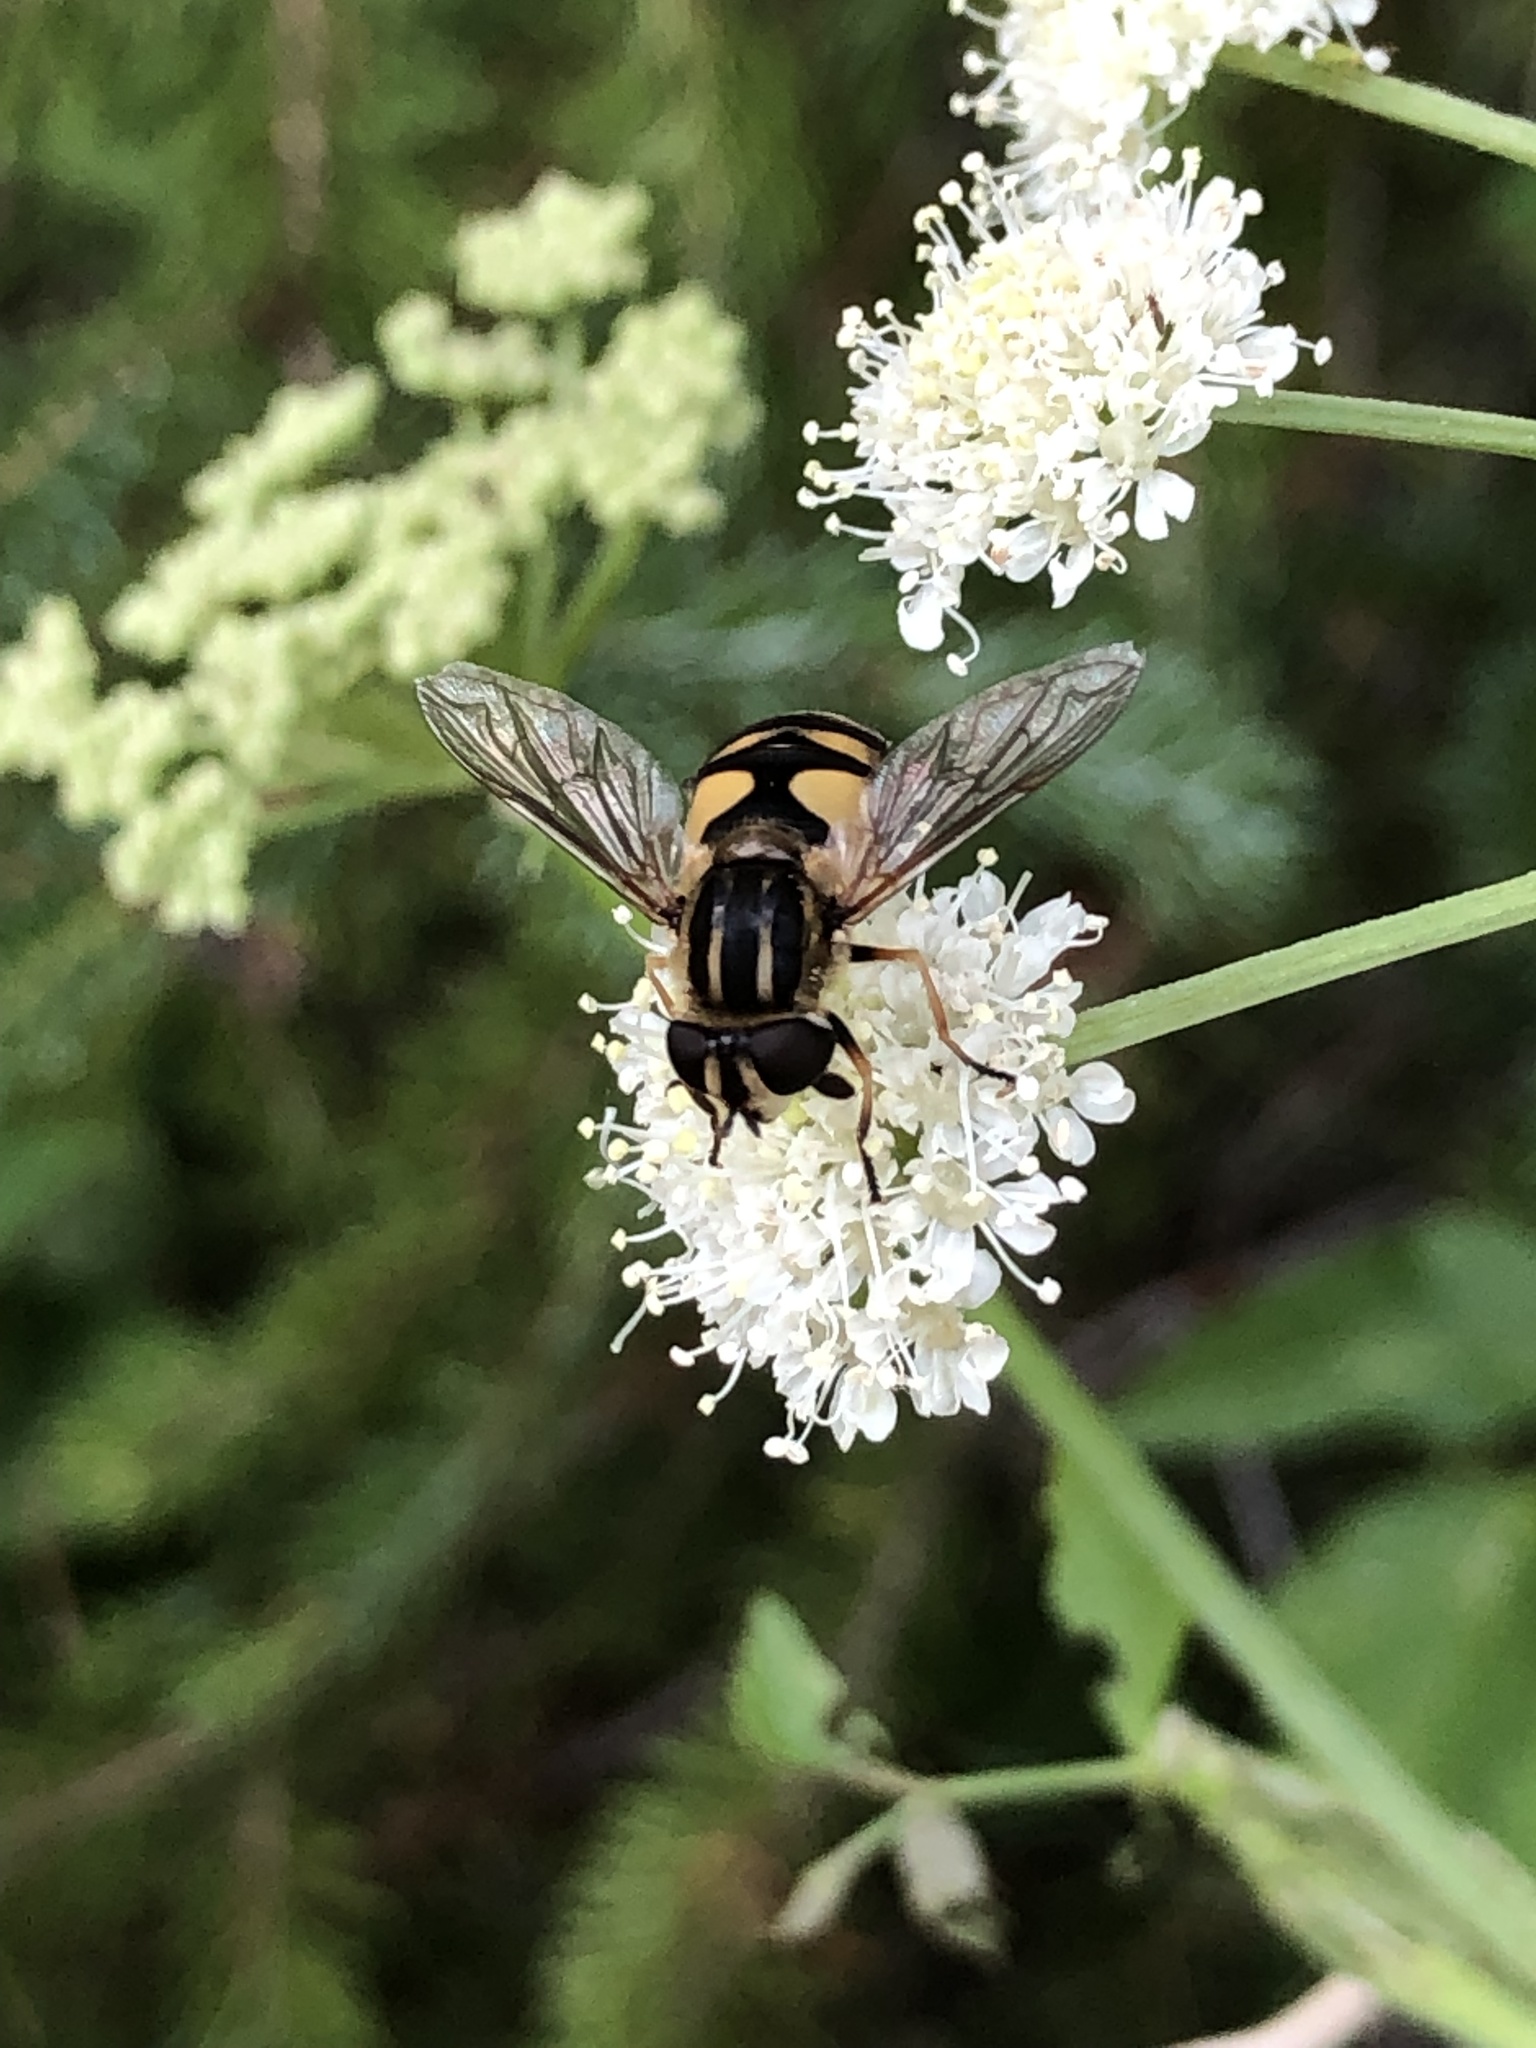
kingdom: Animalia
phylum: Arthropoda
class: Insecta
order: Diptera
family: Syrphidae
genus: Helophilus
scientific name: Helophilus hybridus
